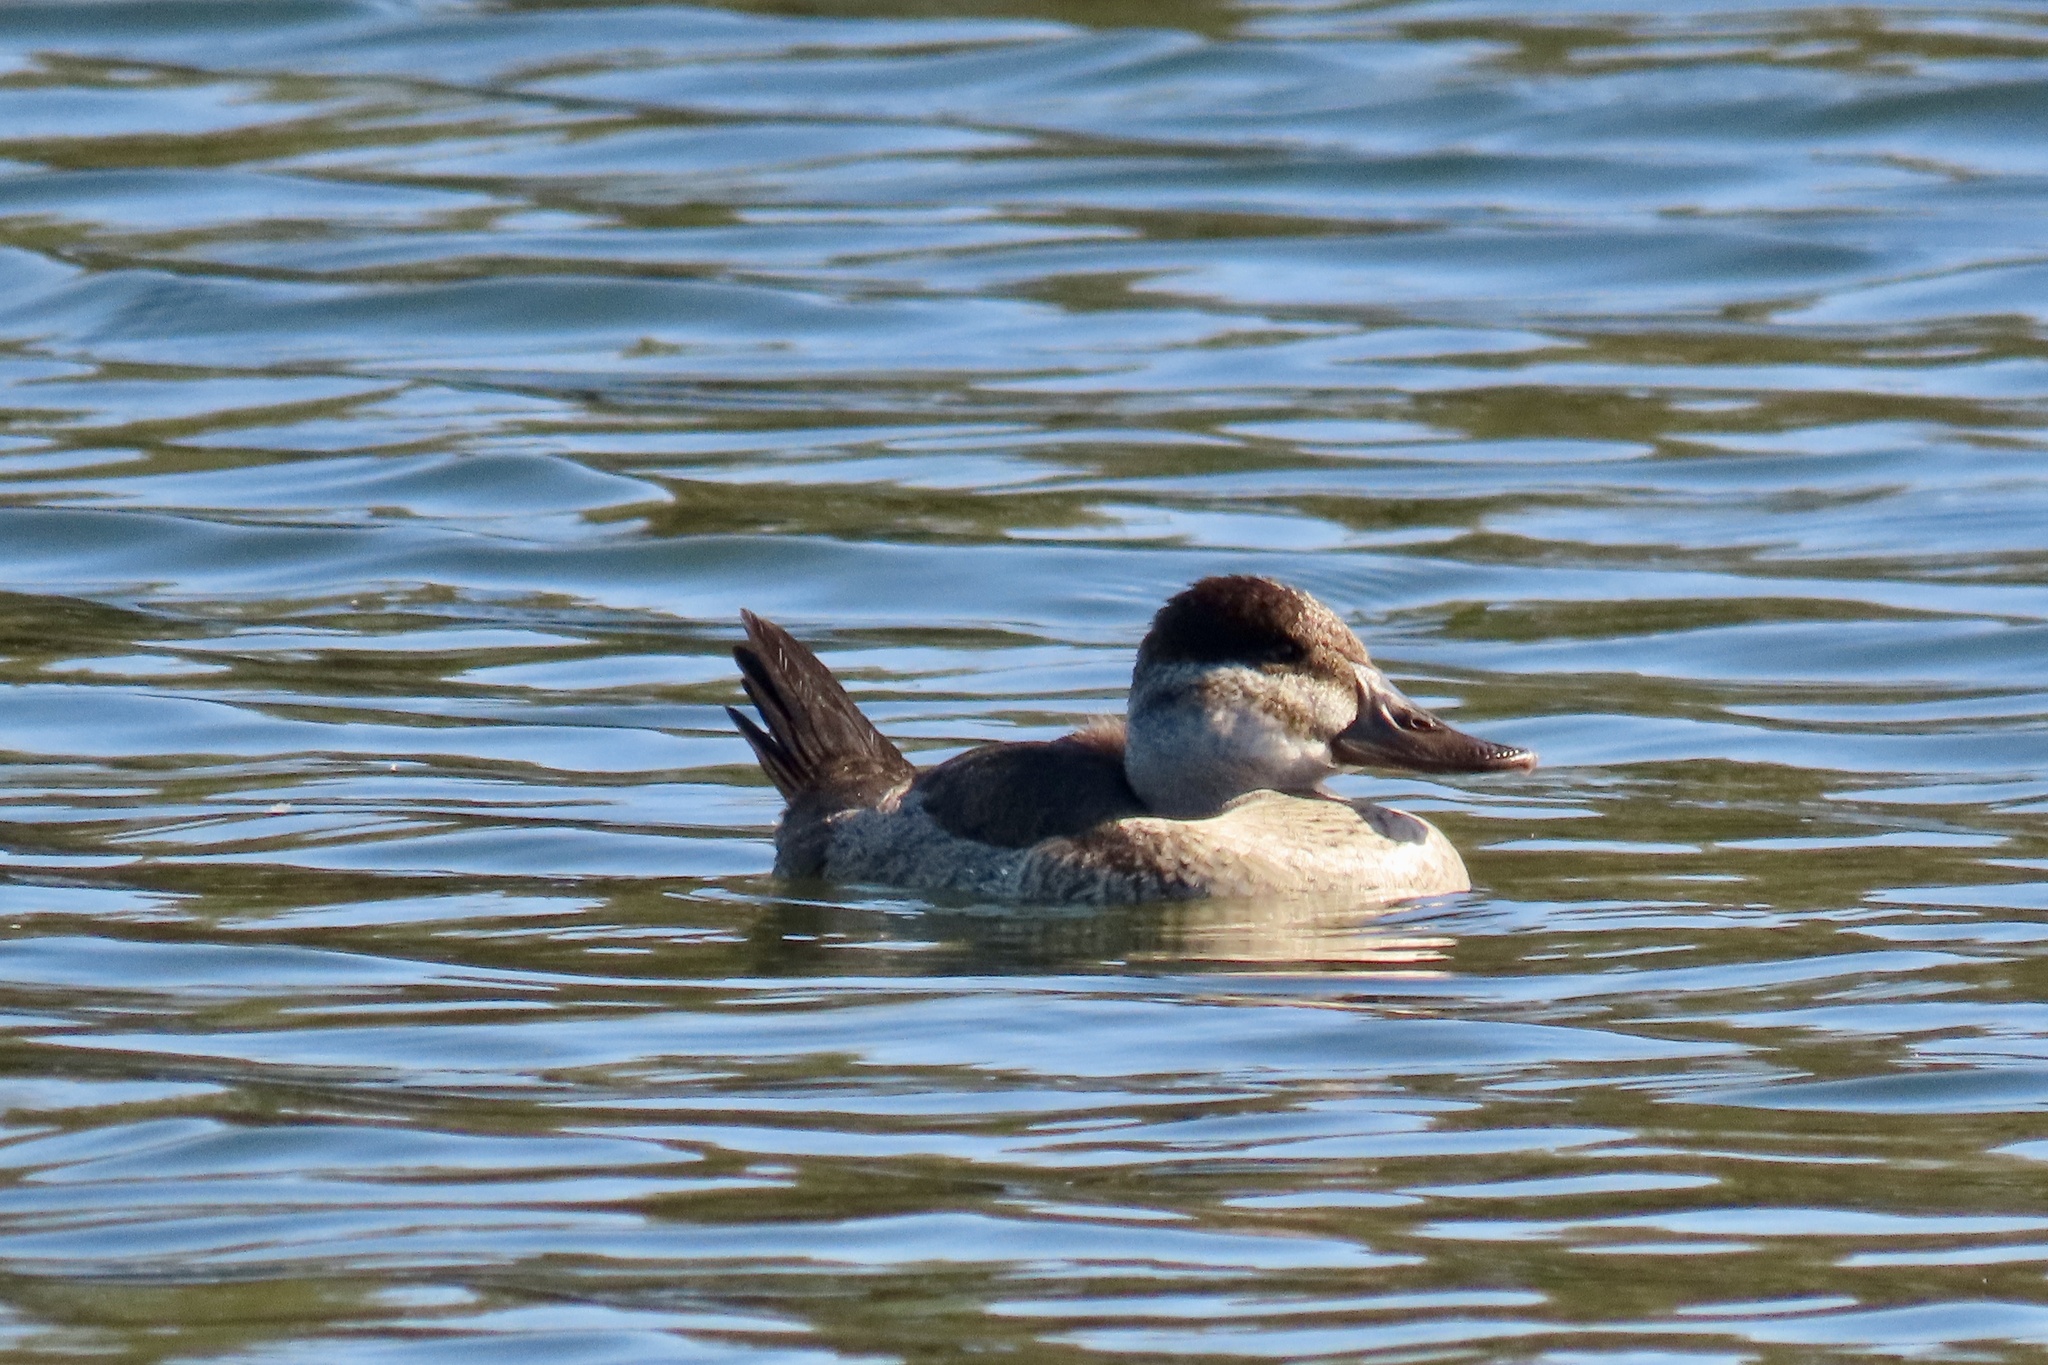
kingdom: Animalia
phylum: Chordata
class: Aves
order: Anseriformes
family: Anatidae
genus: Oxyura
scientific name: Oxyura jamaicensis
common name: Ruddy duck
